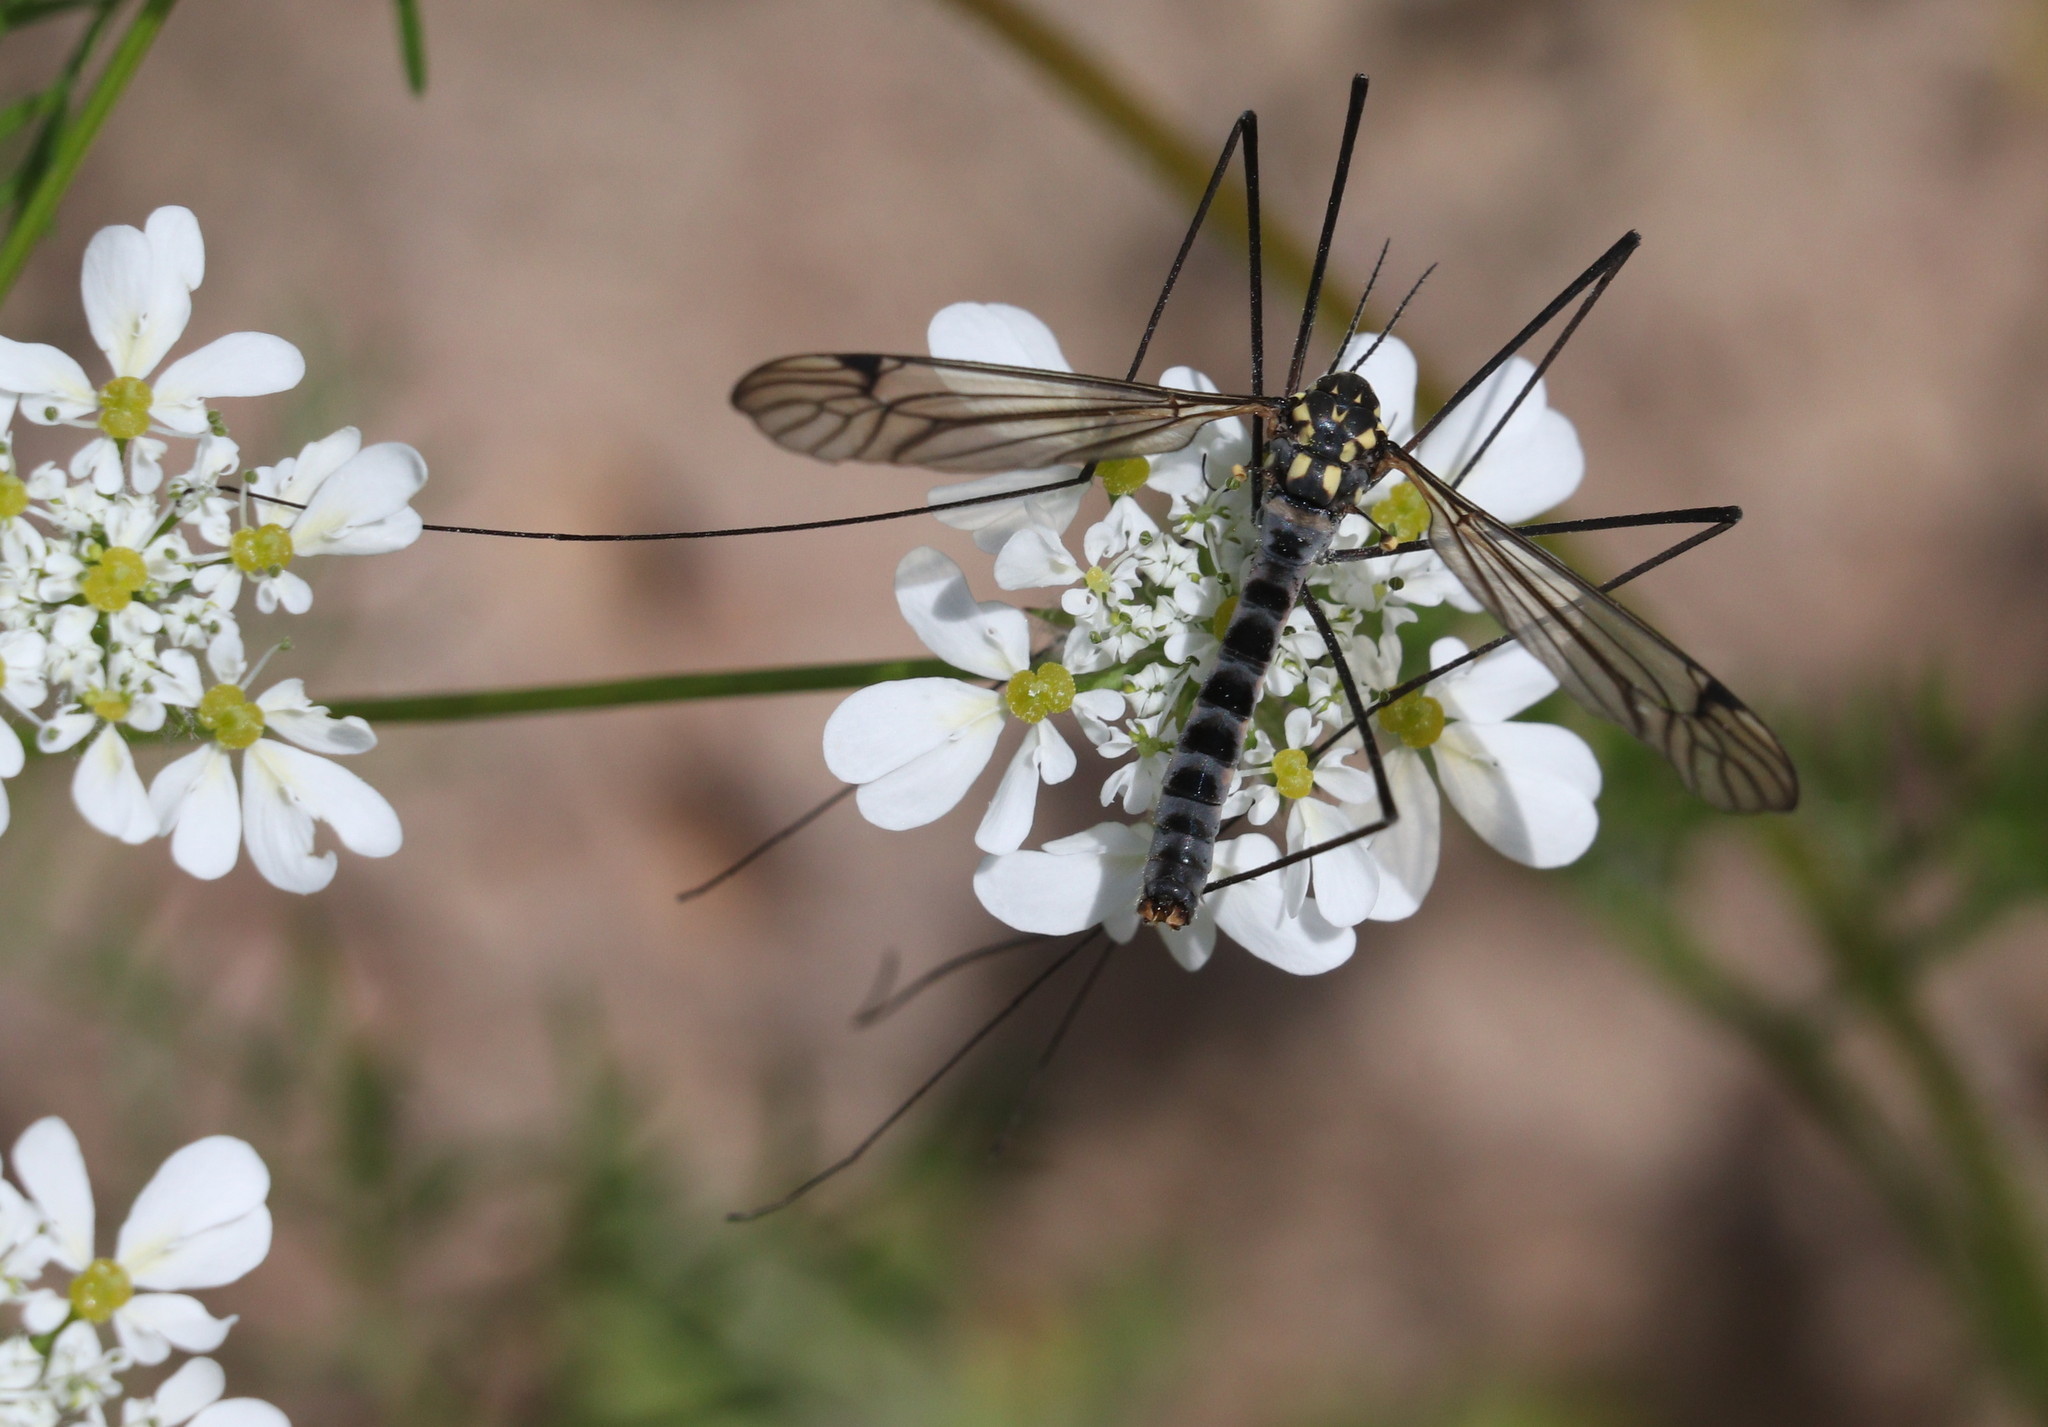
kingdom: Animalia
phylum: Arthropoda
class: Insecta
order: Diptera
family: Tipulidae
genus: Nephrotoma
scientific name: Nephrotoma croceiventris
